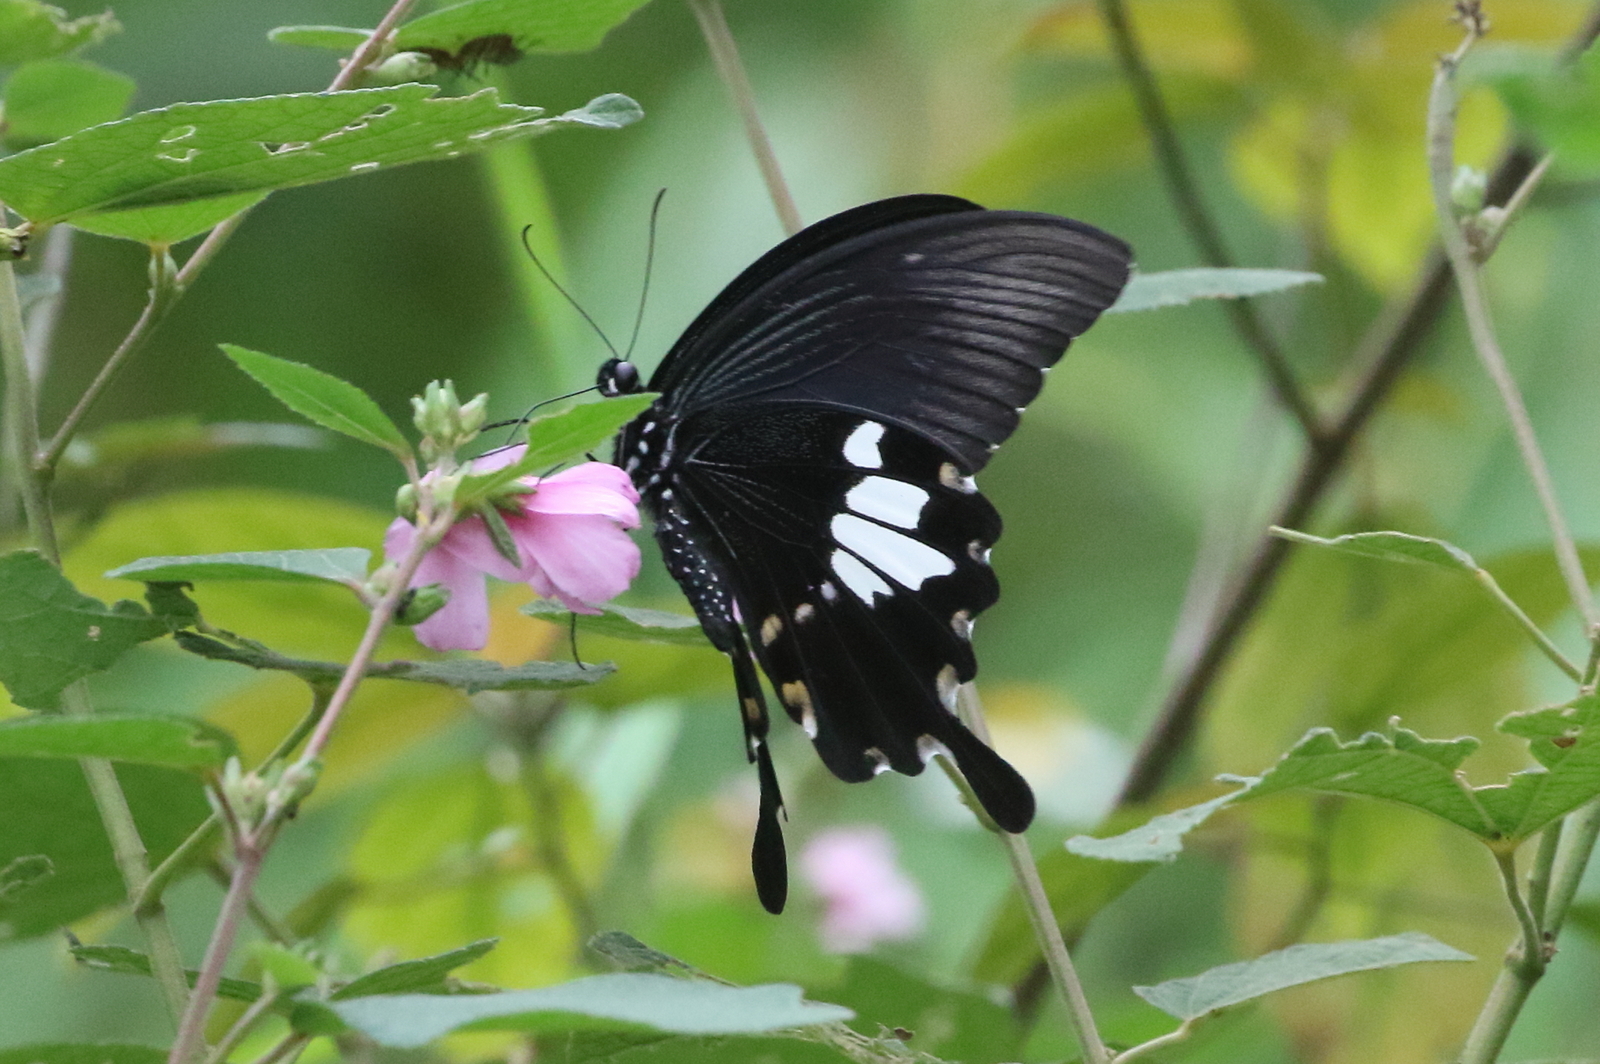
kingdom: Animalia
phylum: Arthropoda
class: Insecta
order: Lepidoptera
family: Papilionidae
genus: Papilio
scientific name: Papilio nephelus
